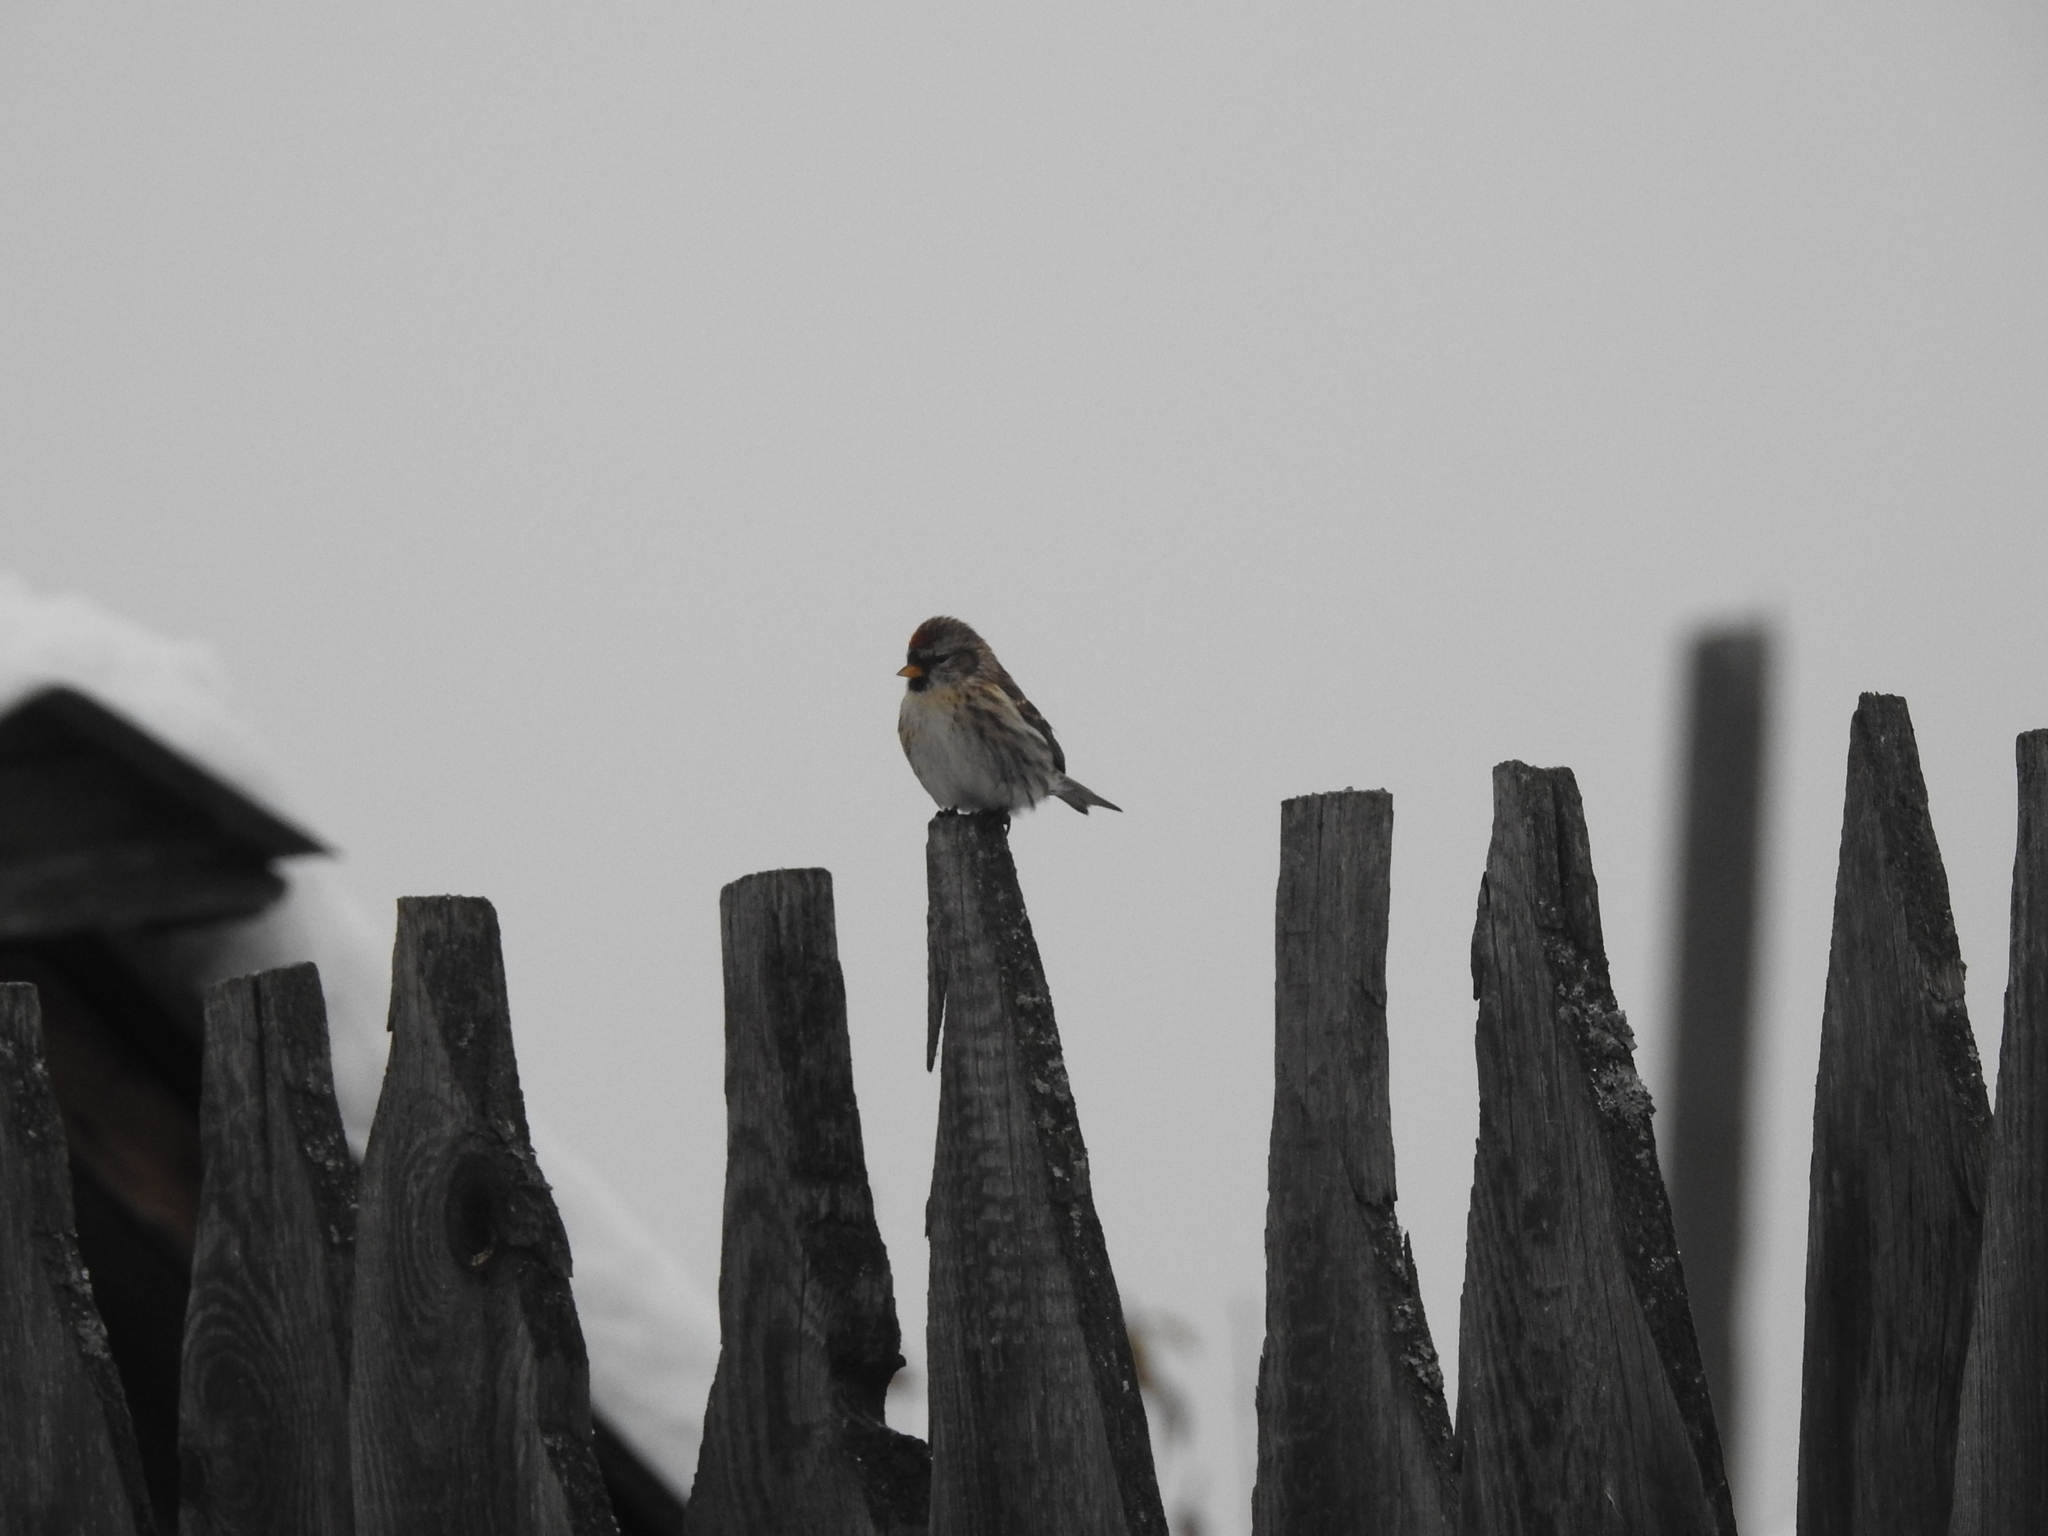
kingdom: Animalia
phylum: Chordata
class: Aves
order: Passeriformes
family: Fringillidae
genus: Acanthis
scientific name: Acanthis flammea
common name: Common redpoll
